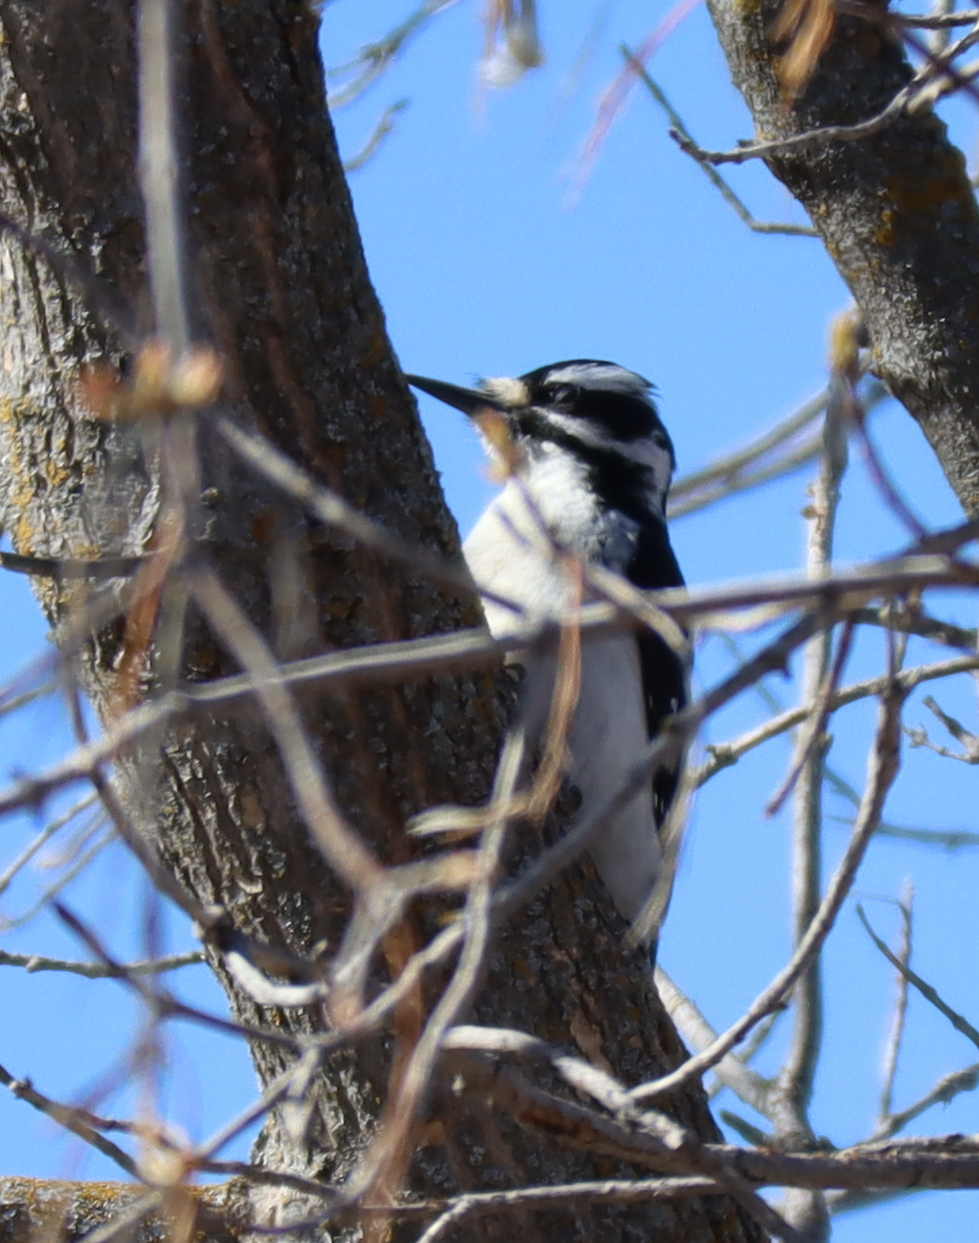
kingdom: Animalia
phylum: Chordata
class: Aves
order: Piciformes
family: Picidae
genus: Leuconotopicus
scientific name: Leuconotopicus villosus
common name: Hairy woodpecker
